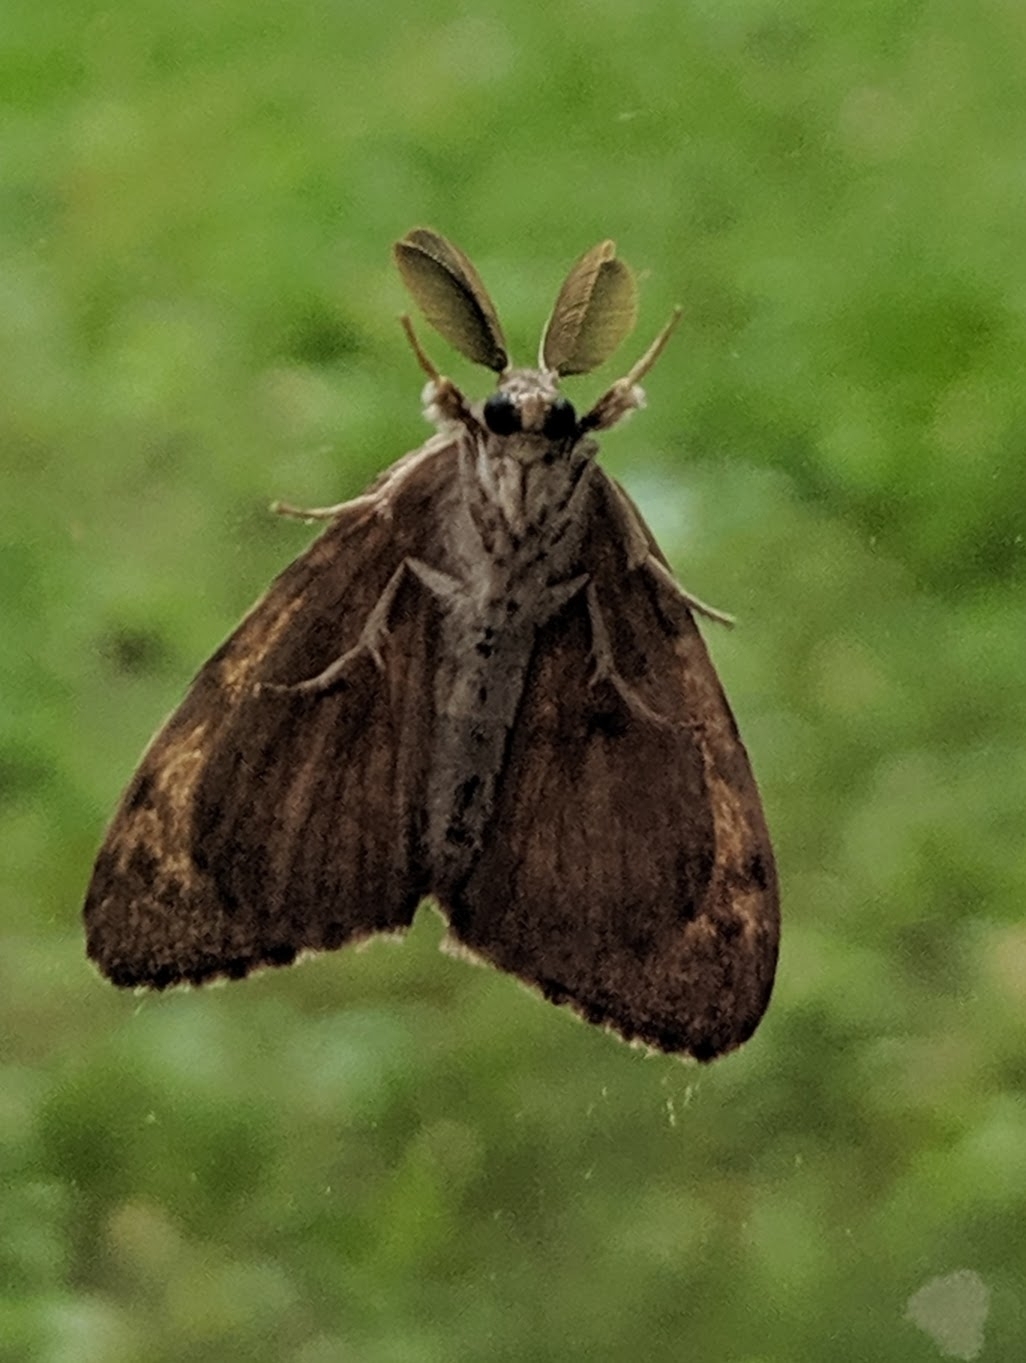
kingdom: Animalia
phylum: Arthropoda
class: Insecta
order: Lepidoptera
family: Erebidae
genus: Lymantria
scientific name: Lymantria dispar
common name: Gypsy moth
